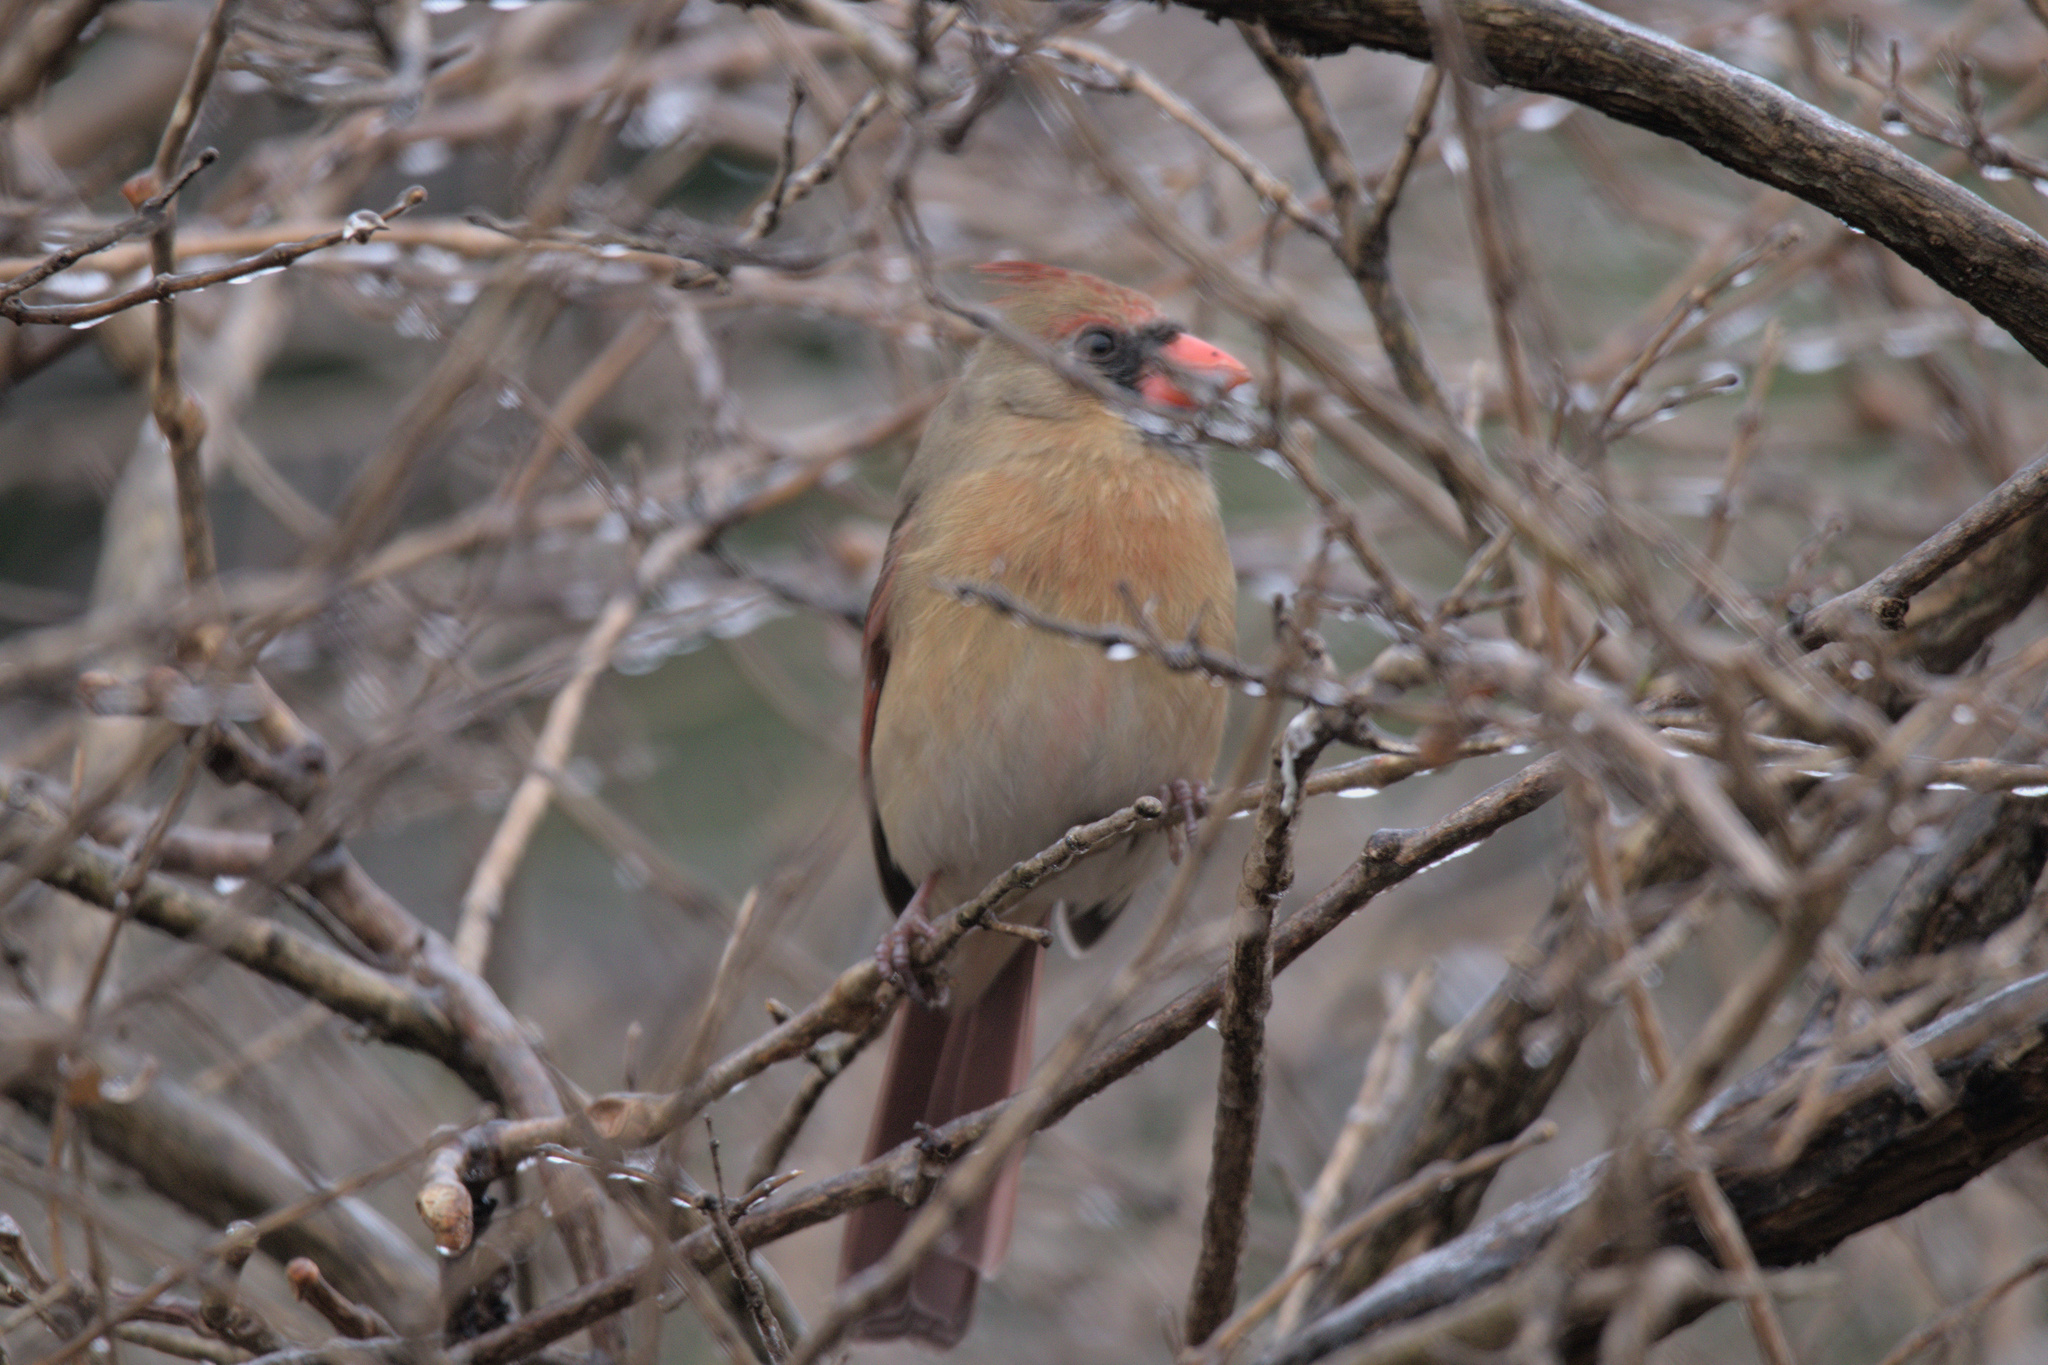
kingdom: Animalia
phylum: Chordata
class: Aves
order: Passeriformes
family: Cardinalidae
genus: Cardinalis
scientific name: Cardinalis cardinalis
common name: Northern cardinal
